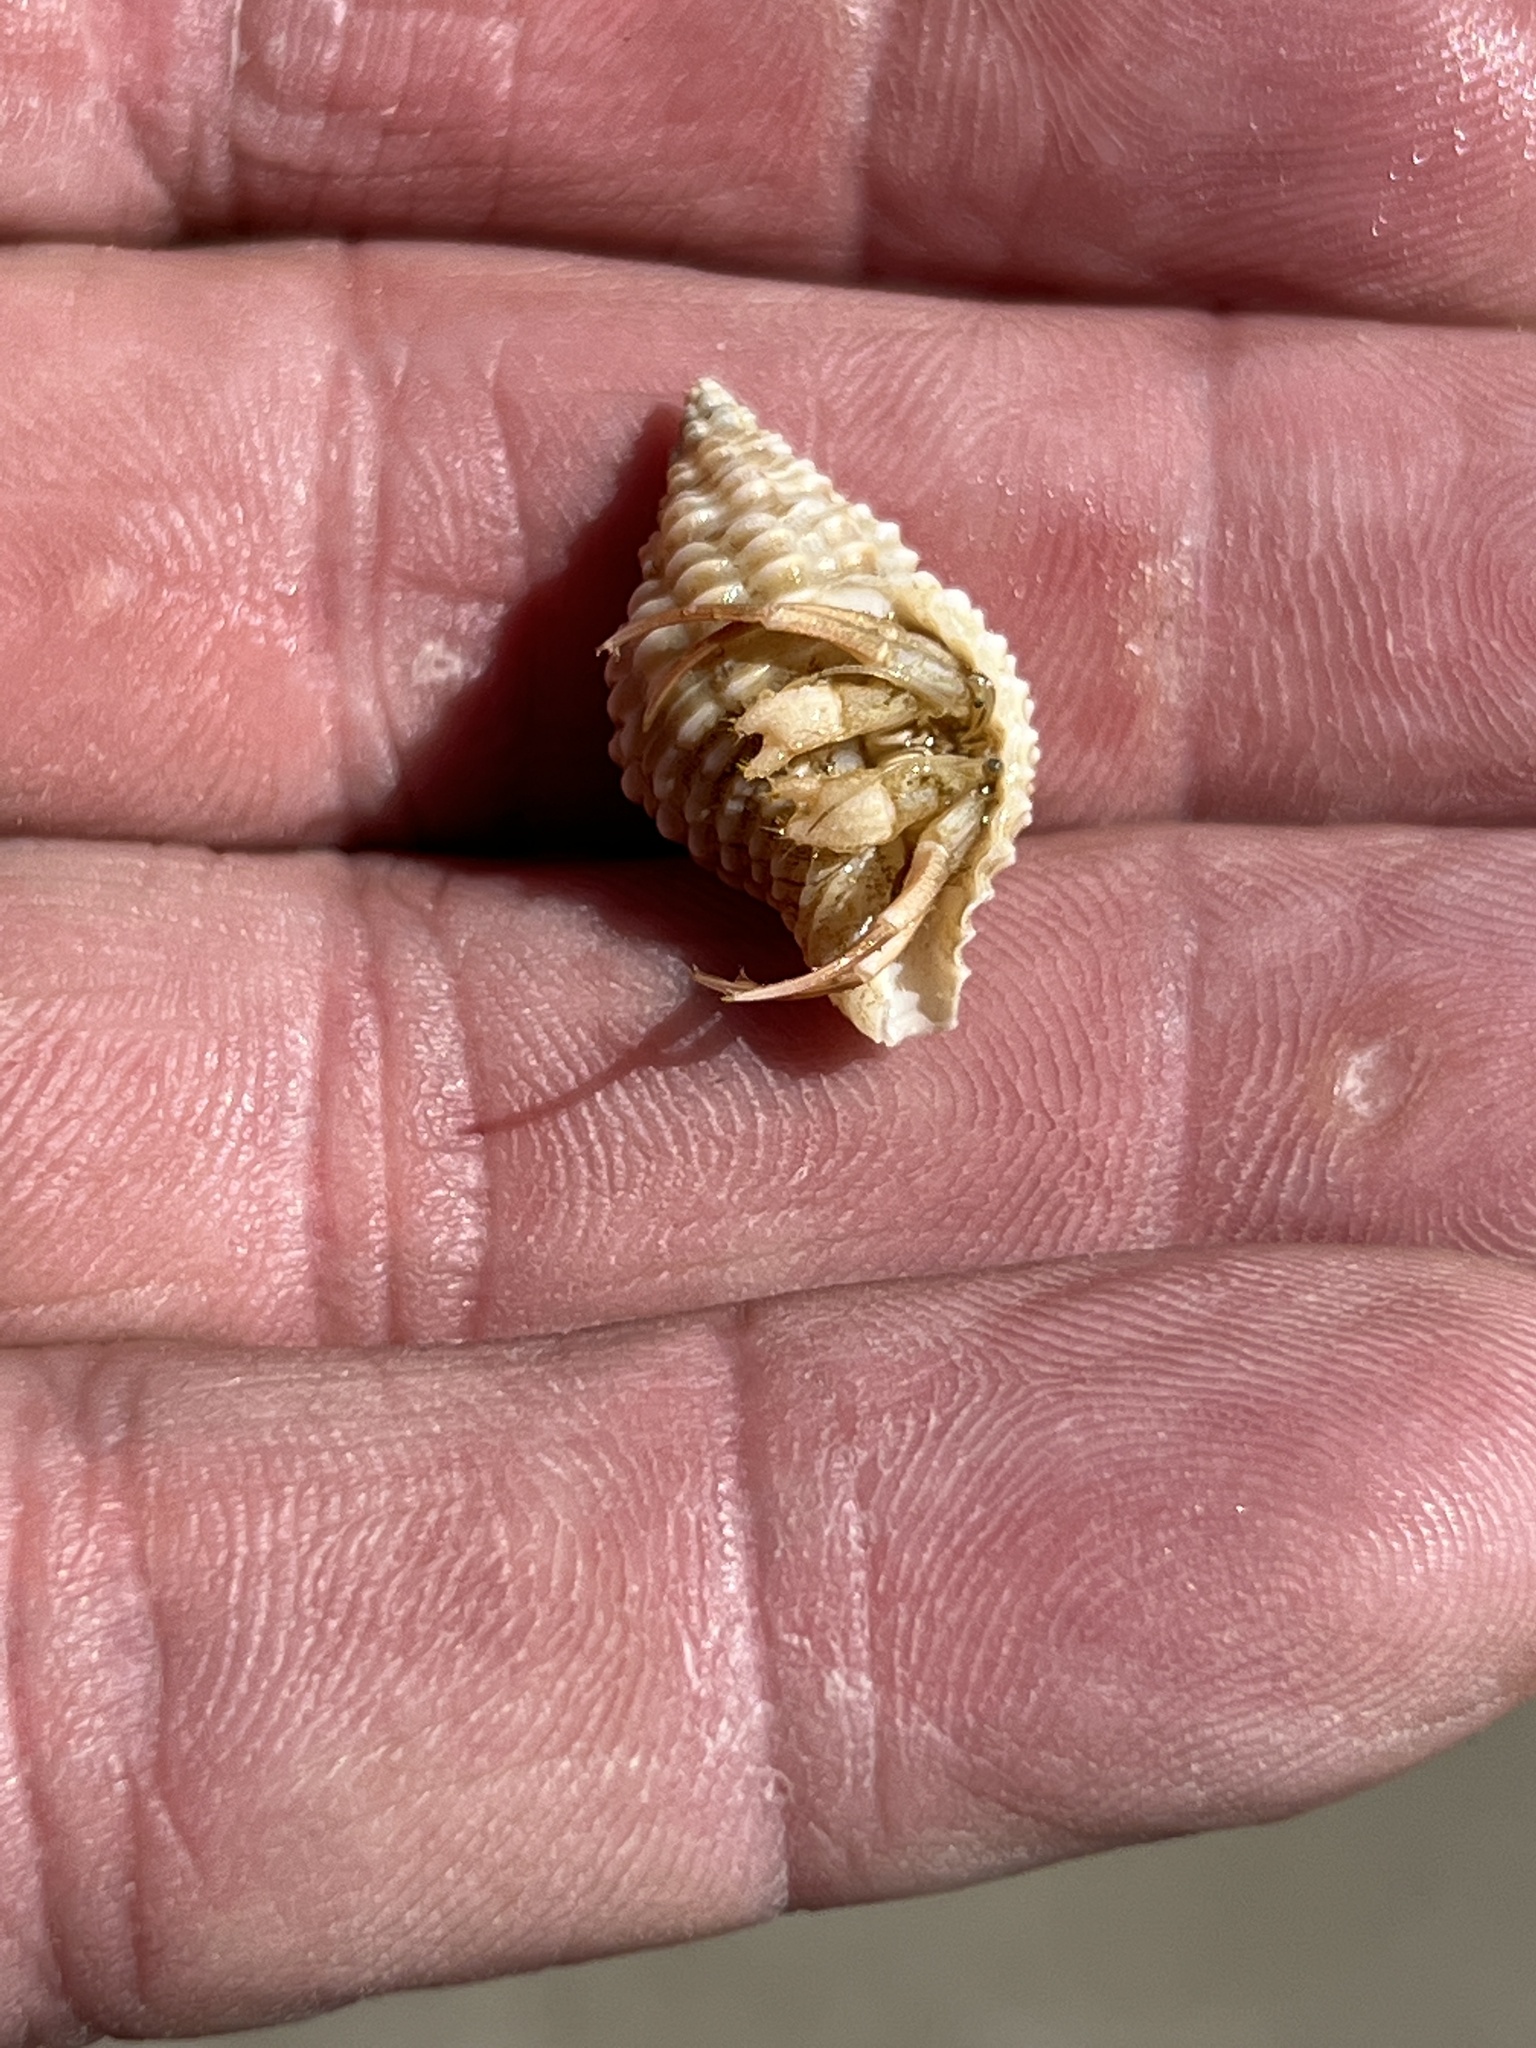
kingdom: Animalia
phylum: Arthropoda
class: Malacostraca
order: Decapoda
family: Diogenidae
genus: Isocheles
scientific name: Isocheles wurdemanni
